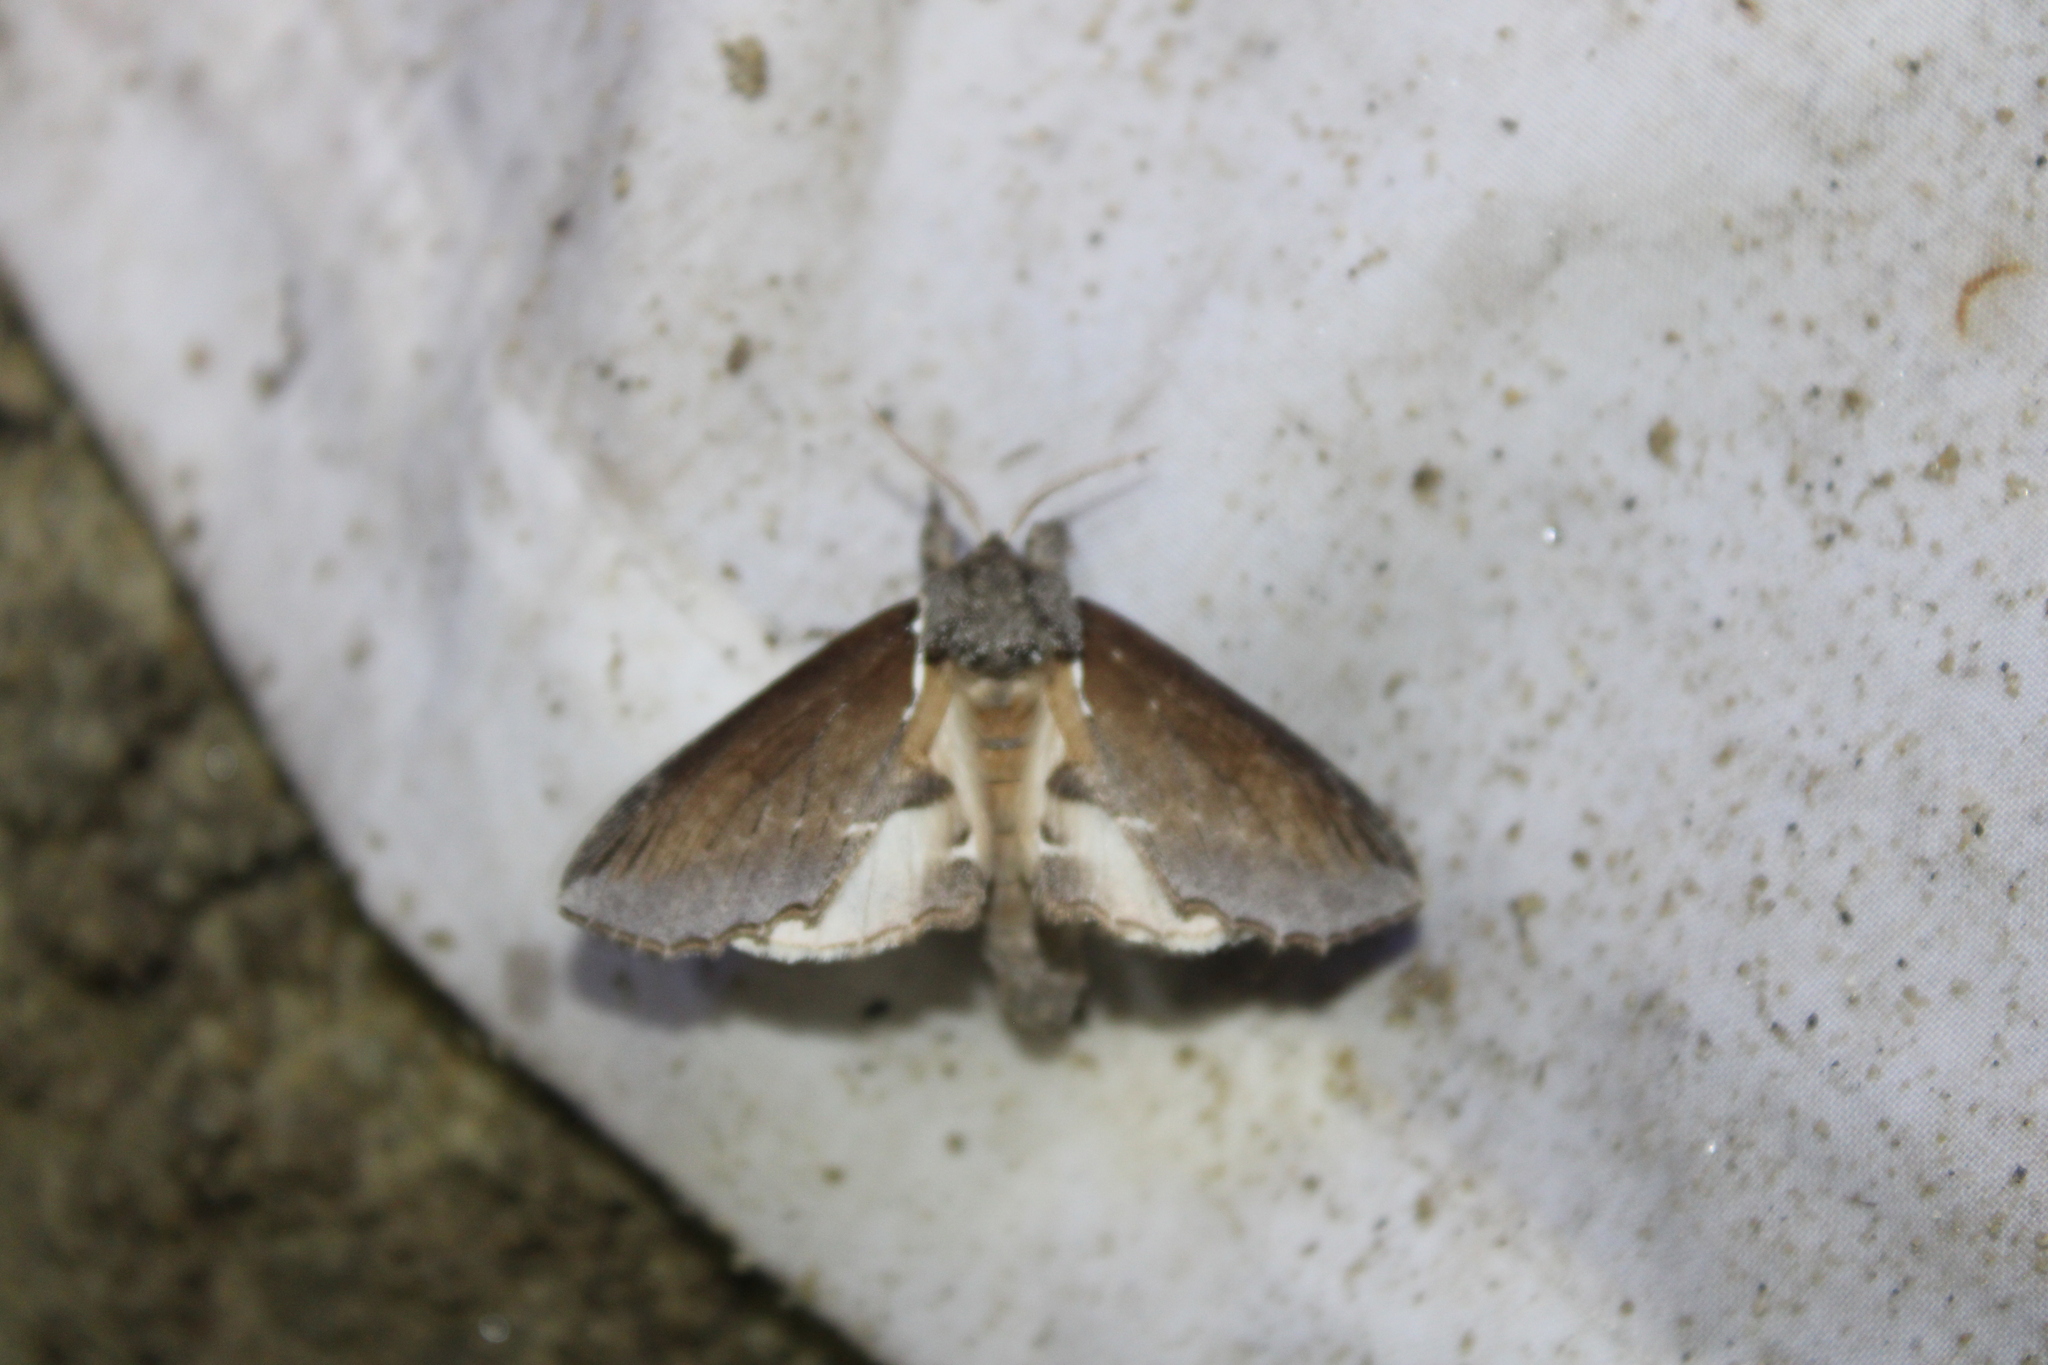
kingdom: Animalia
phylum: Arthropoda
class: Insecta
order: Lepidoptera
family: Notodontidae
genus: Pheosidea
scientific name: Pheosidea elegans
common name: Elegant prominent
